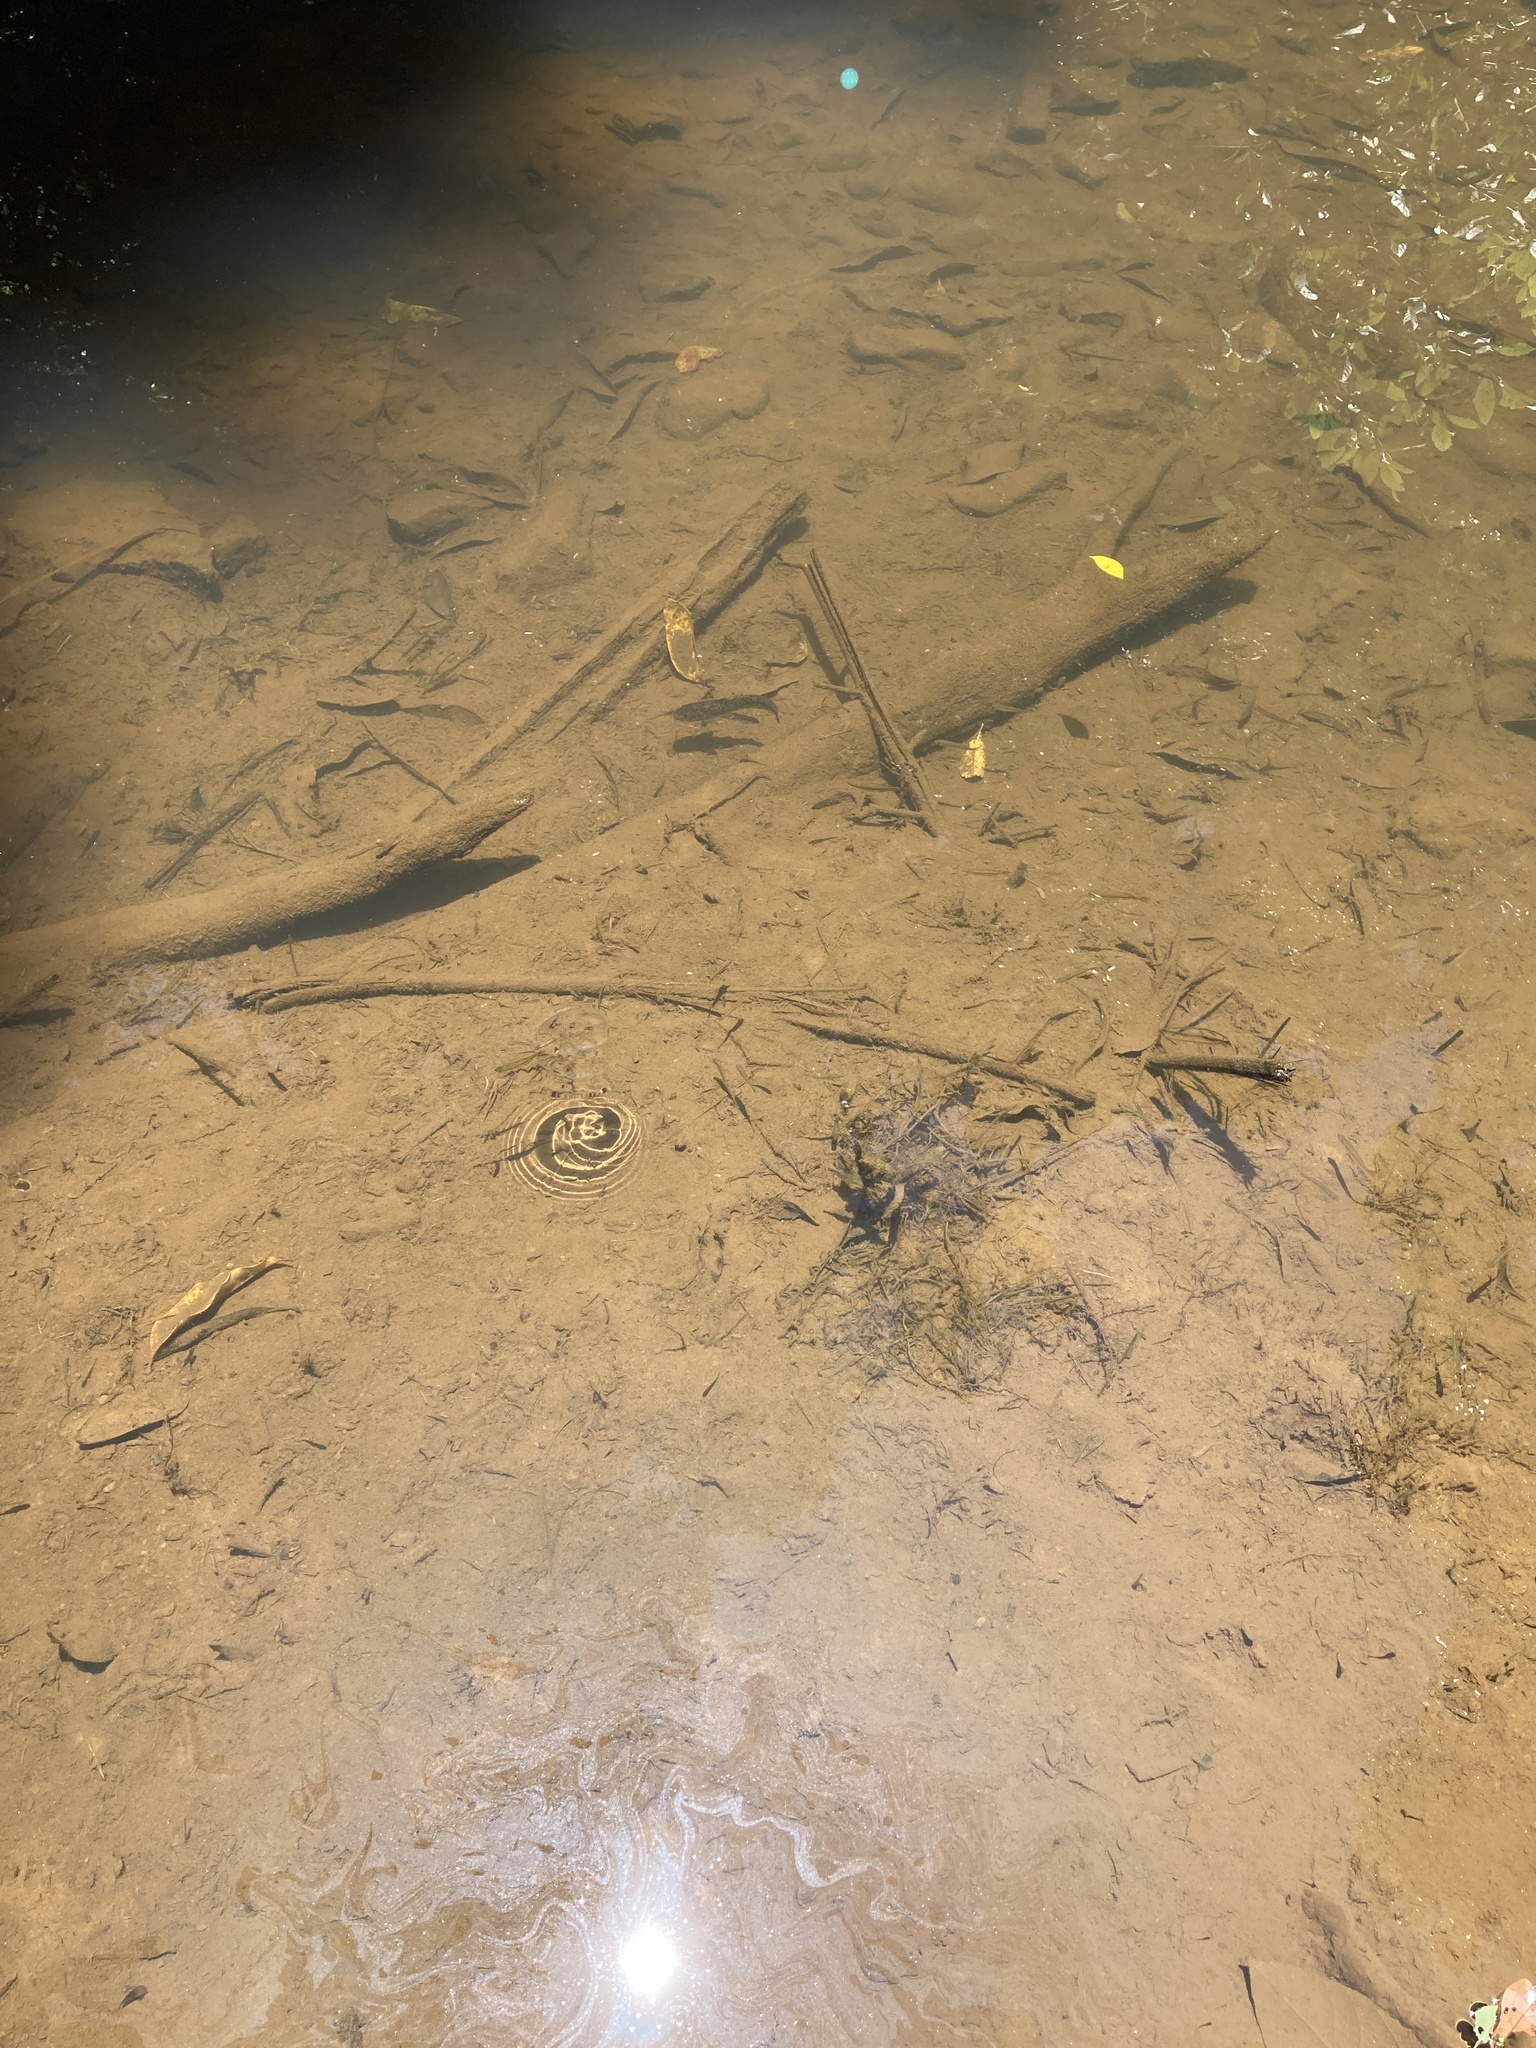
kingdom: Animalia
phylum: Chordata
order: Siluriformes
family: Plotosidae
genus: Tandanus
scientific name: Tandanus tropicanus
